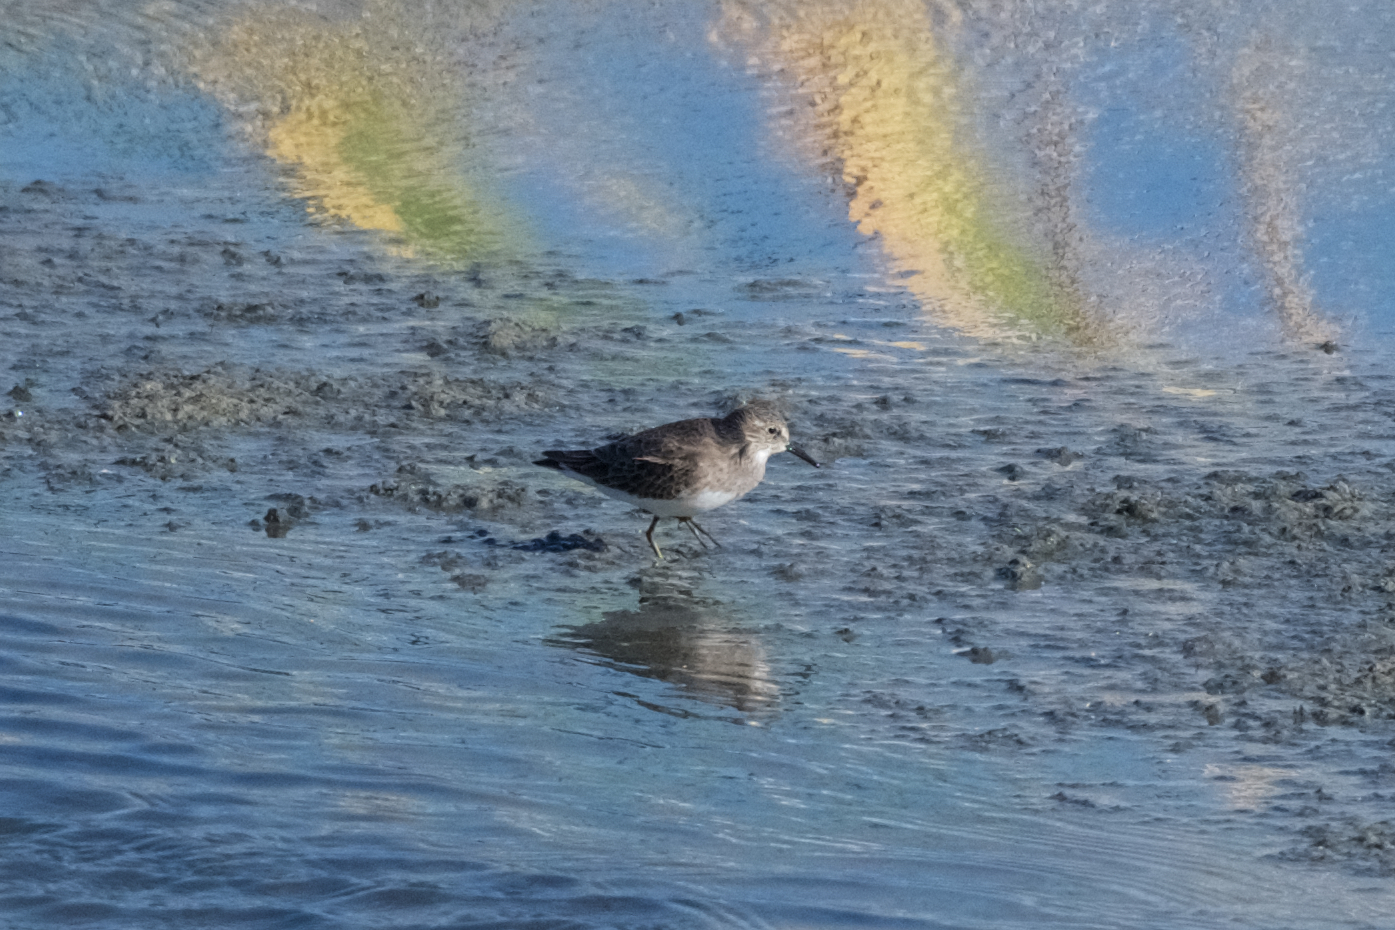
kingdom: Animalia
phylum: Chordata
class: Aves
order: Charadriiformes
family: Scolopacidae
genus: Calidris
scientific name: Calidris minutilla
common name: Least sandpiper
